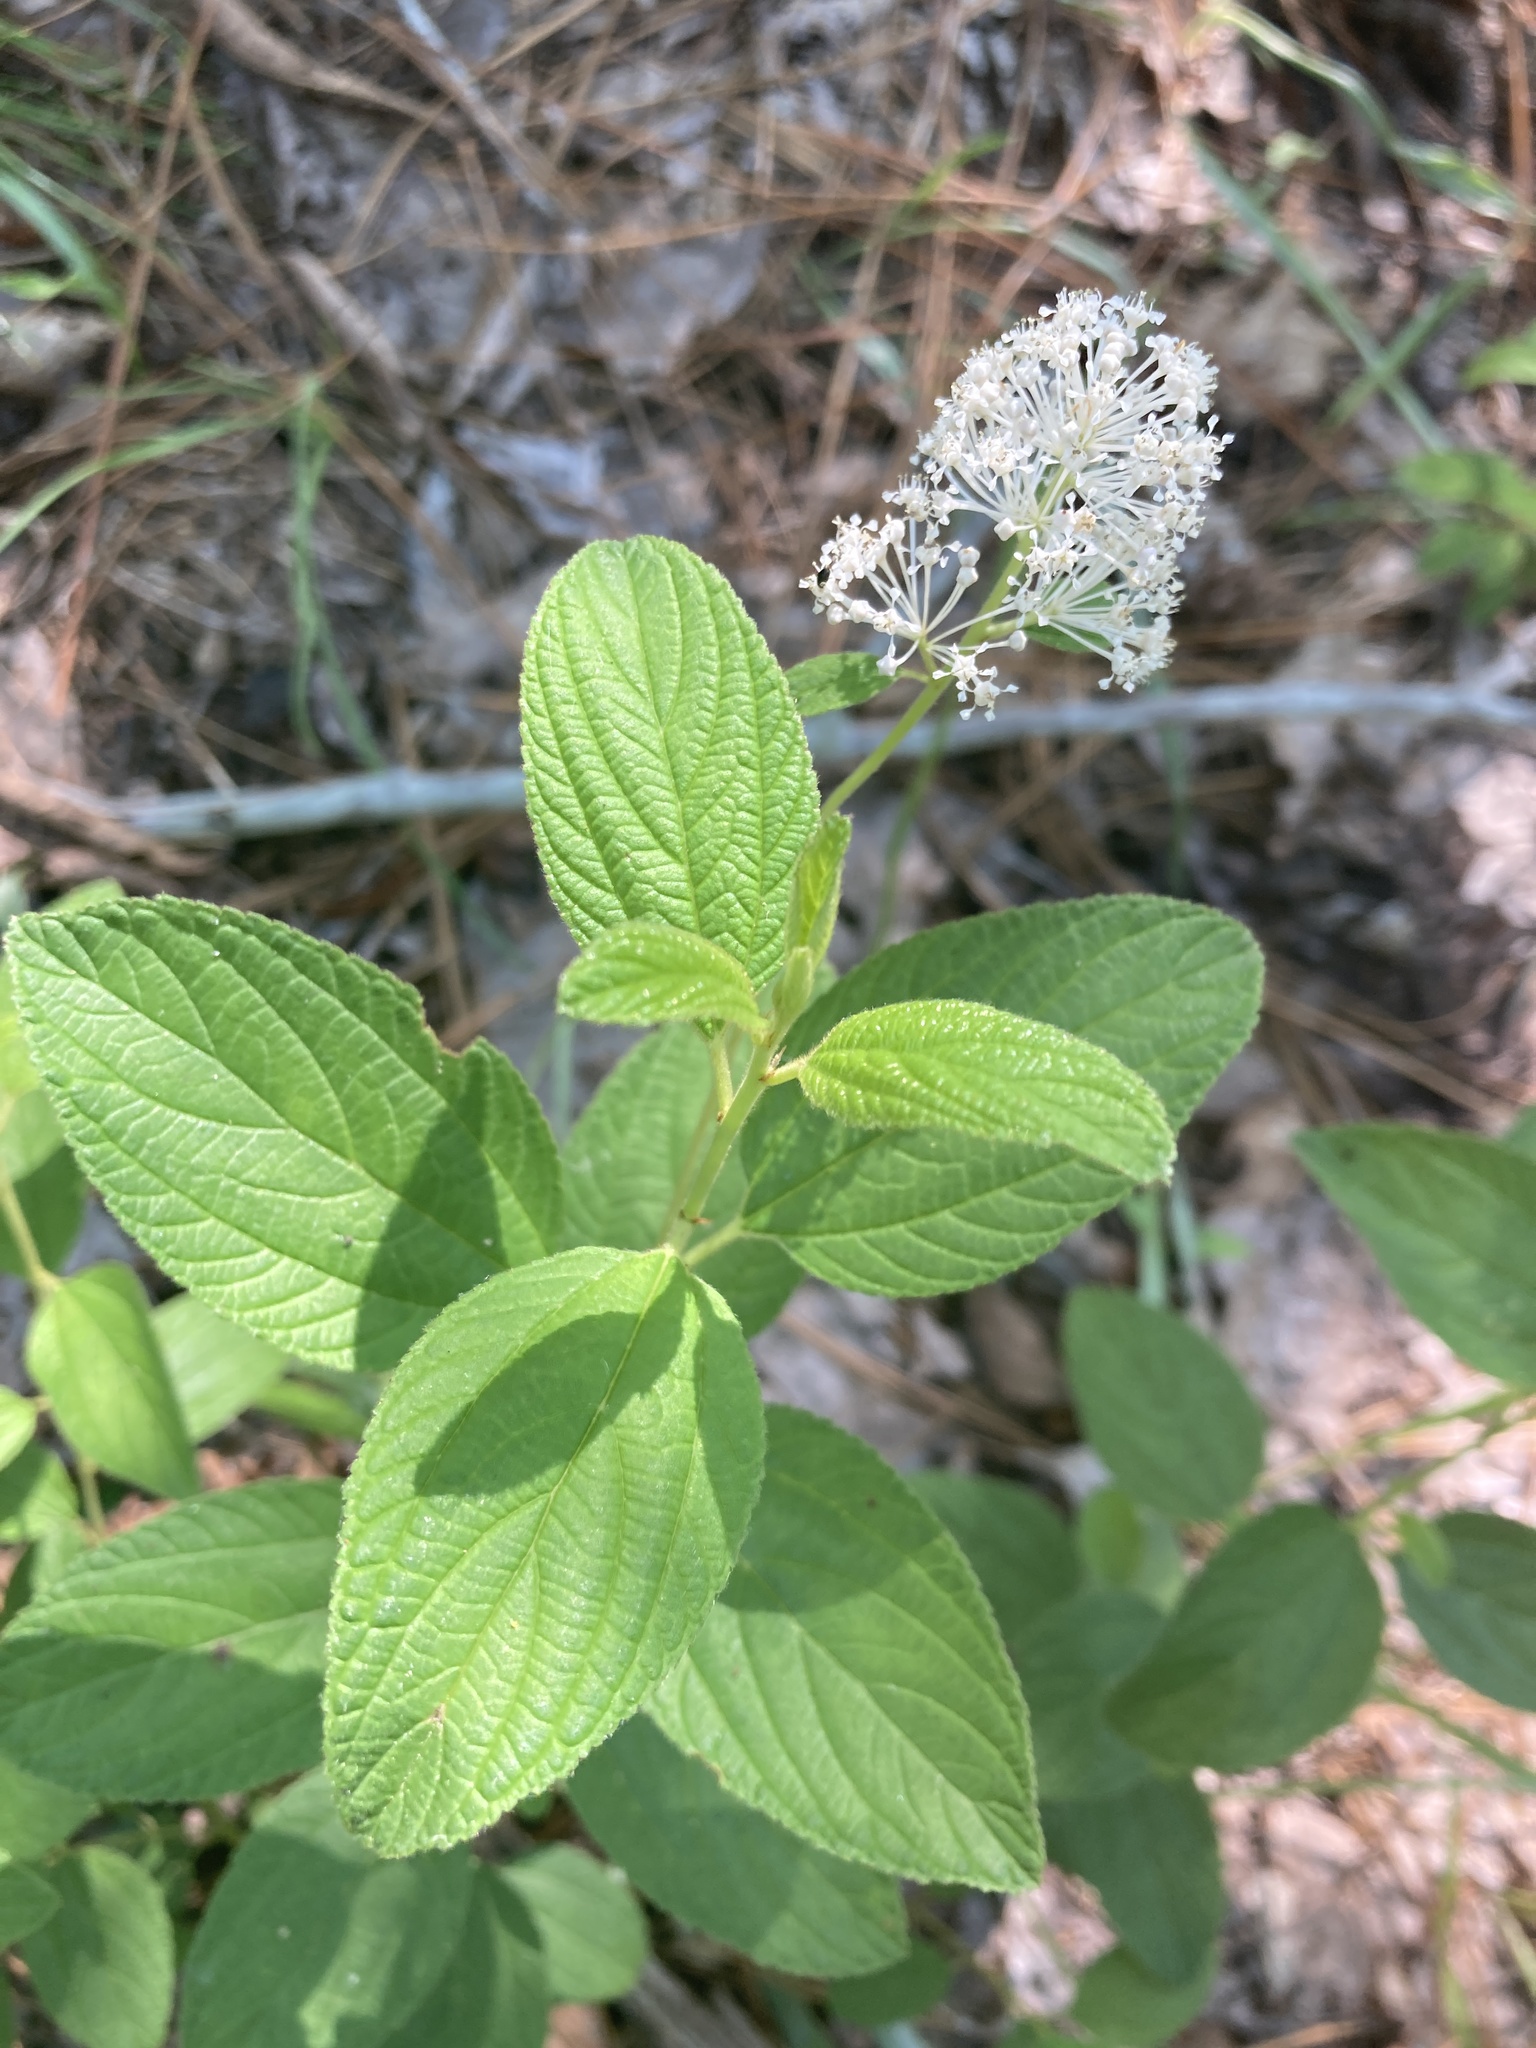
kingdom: Plantae
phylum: Tracheophyta
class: Magnoliopsida
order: Rosales
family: Rhamnaceae
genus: Ceanothus
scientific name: Ceanothus americanus
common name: Redroot
